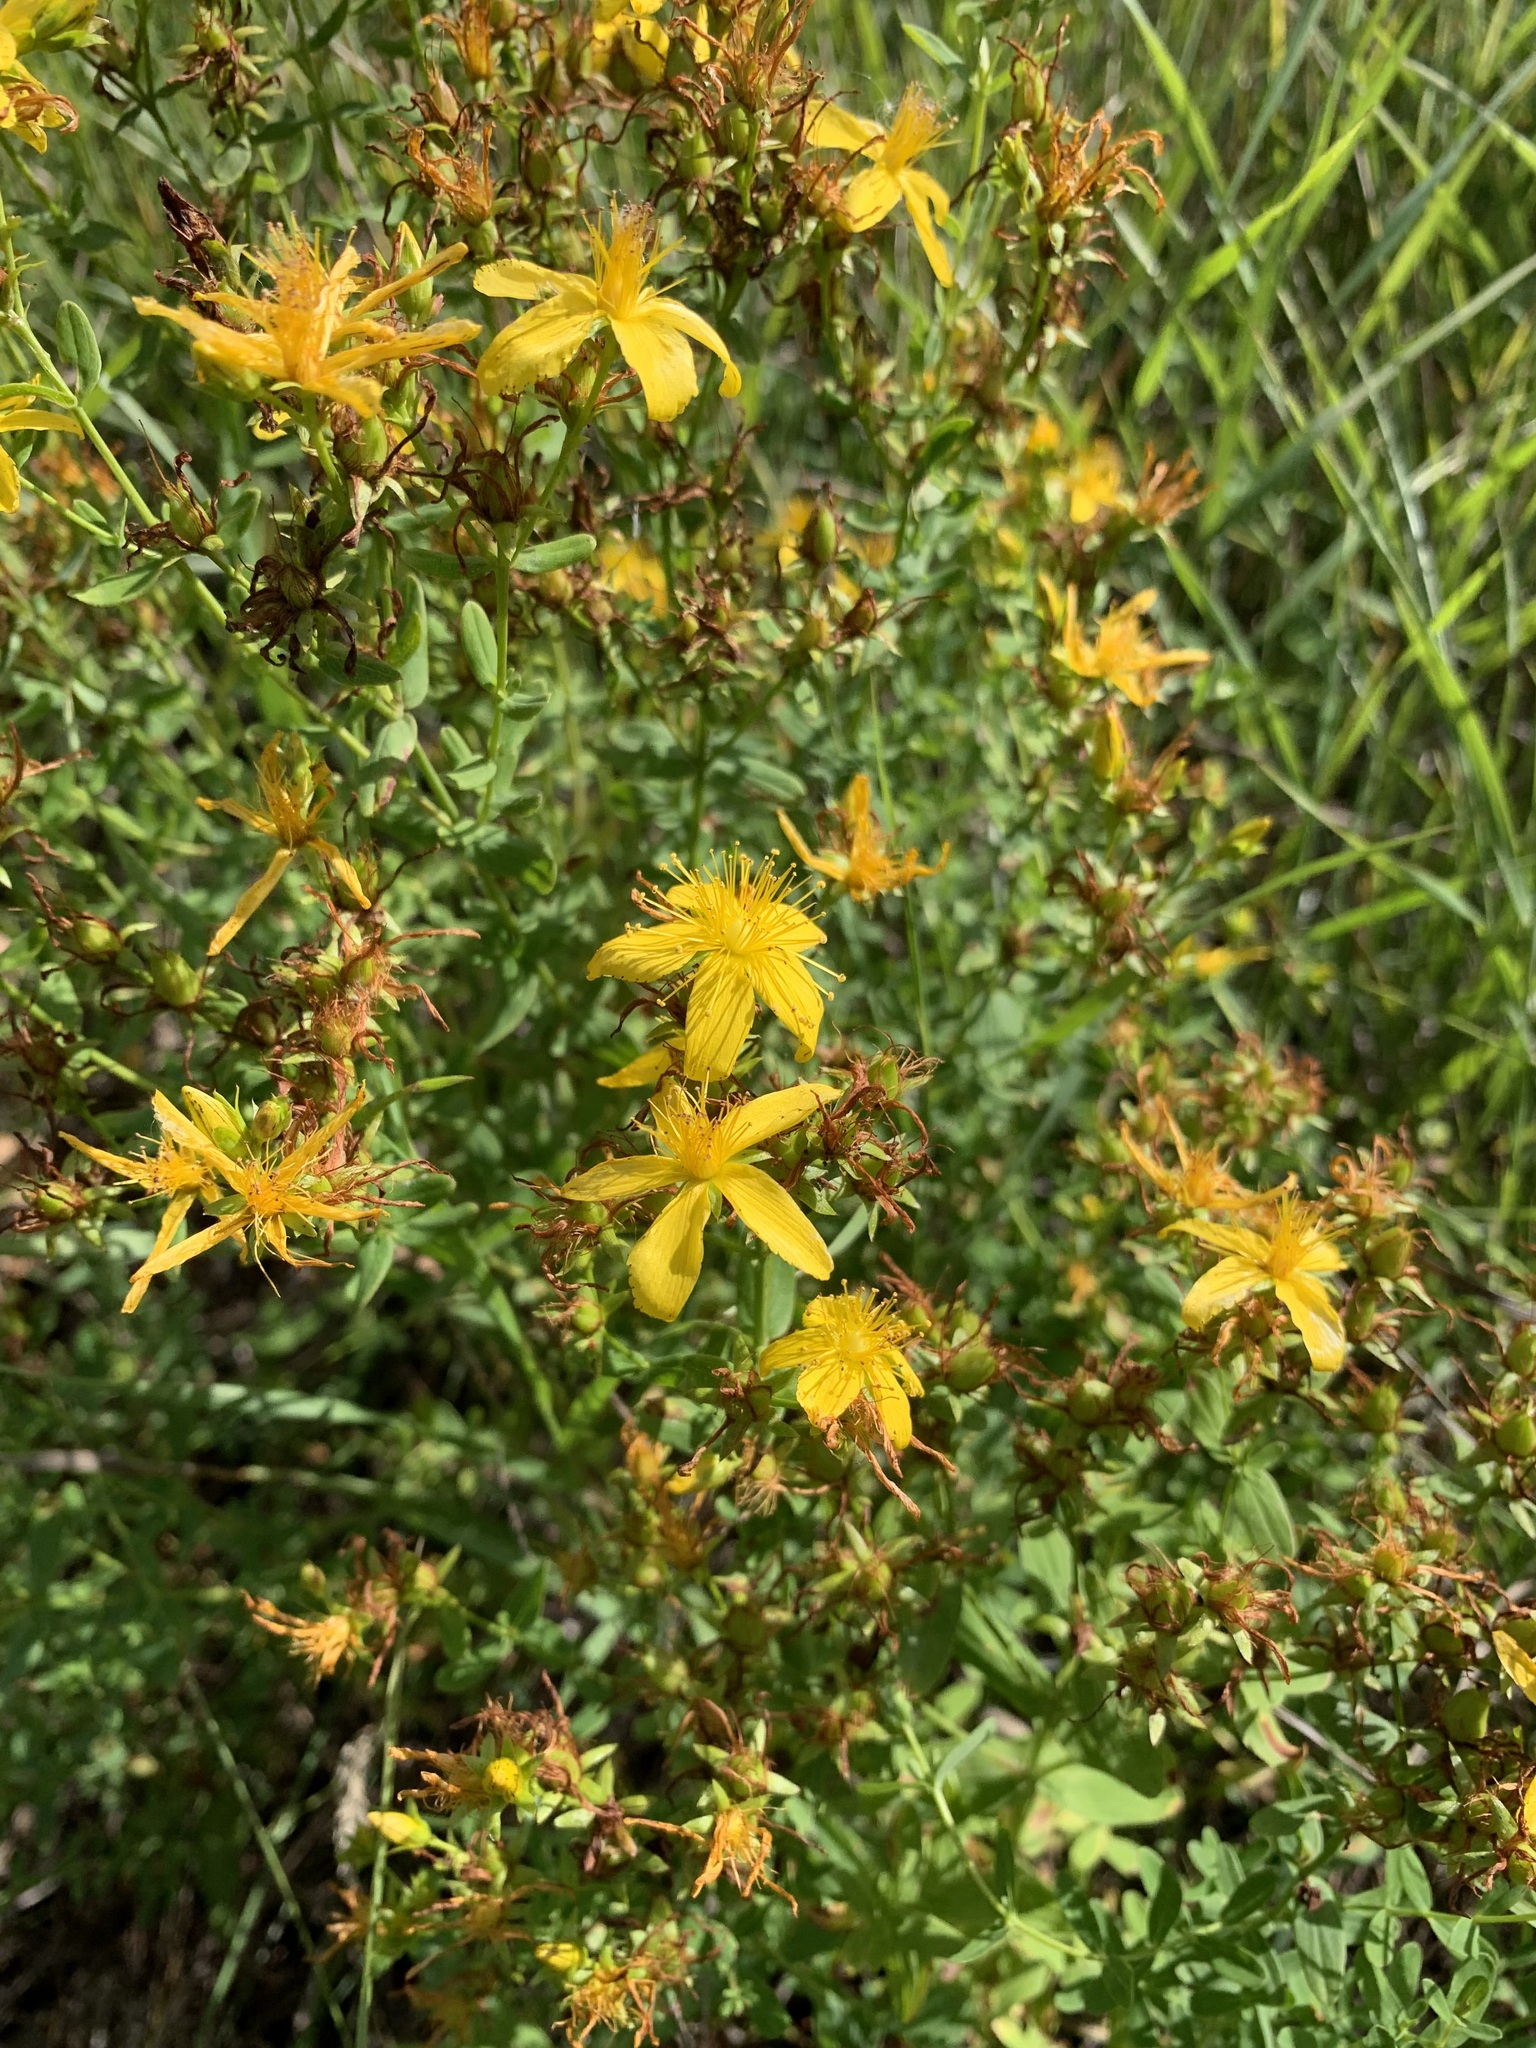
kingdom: Plantae
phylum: Tracheophyta
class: Magnoliopsida
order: Malpighiales
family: Hypericaceae
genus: Hypericum
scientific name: Hypericum perforatum
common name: Common st. johnswort
